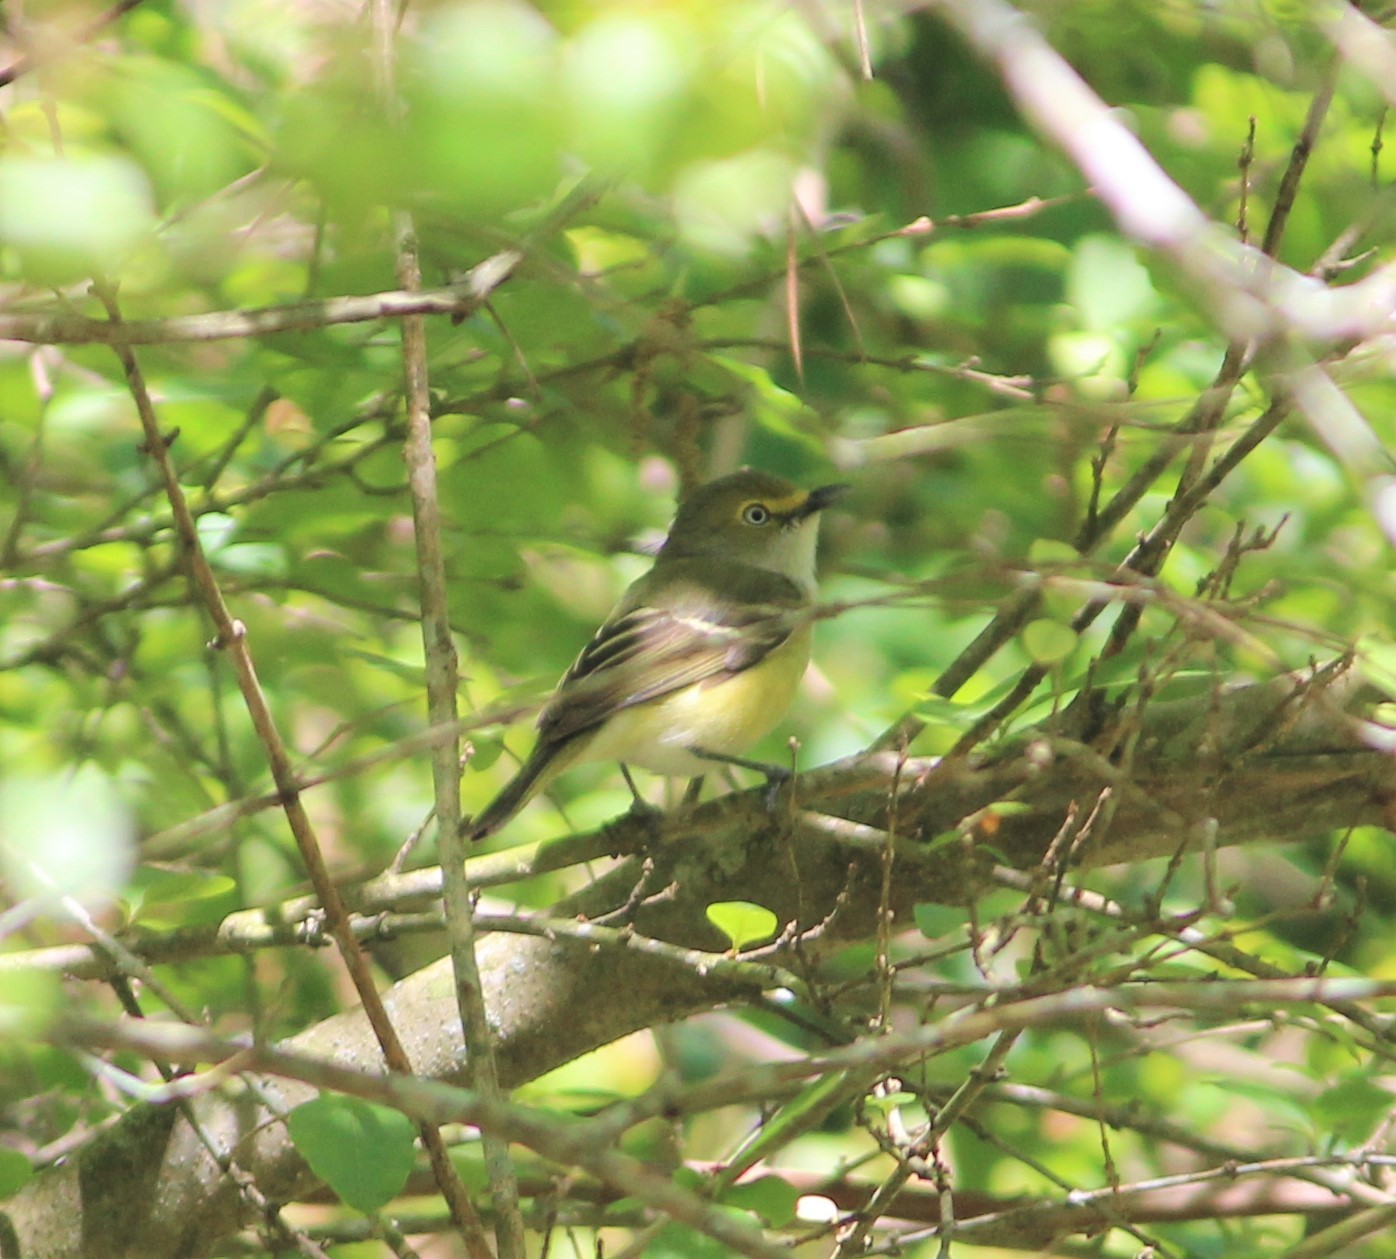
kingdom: Animalia
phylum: Chordata
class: Aves
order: Passeriformes
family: Vireonidae
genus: Vireo
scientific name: Vireo griseus
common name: White-eyed vireo
